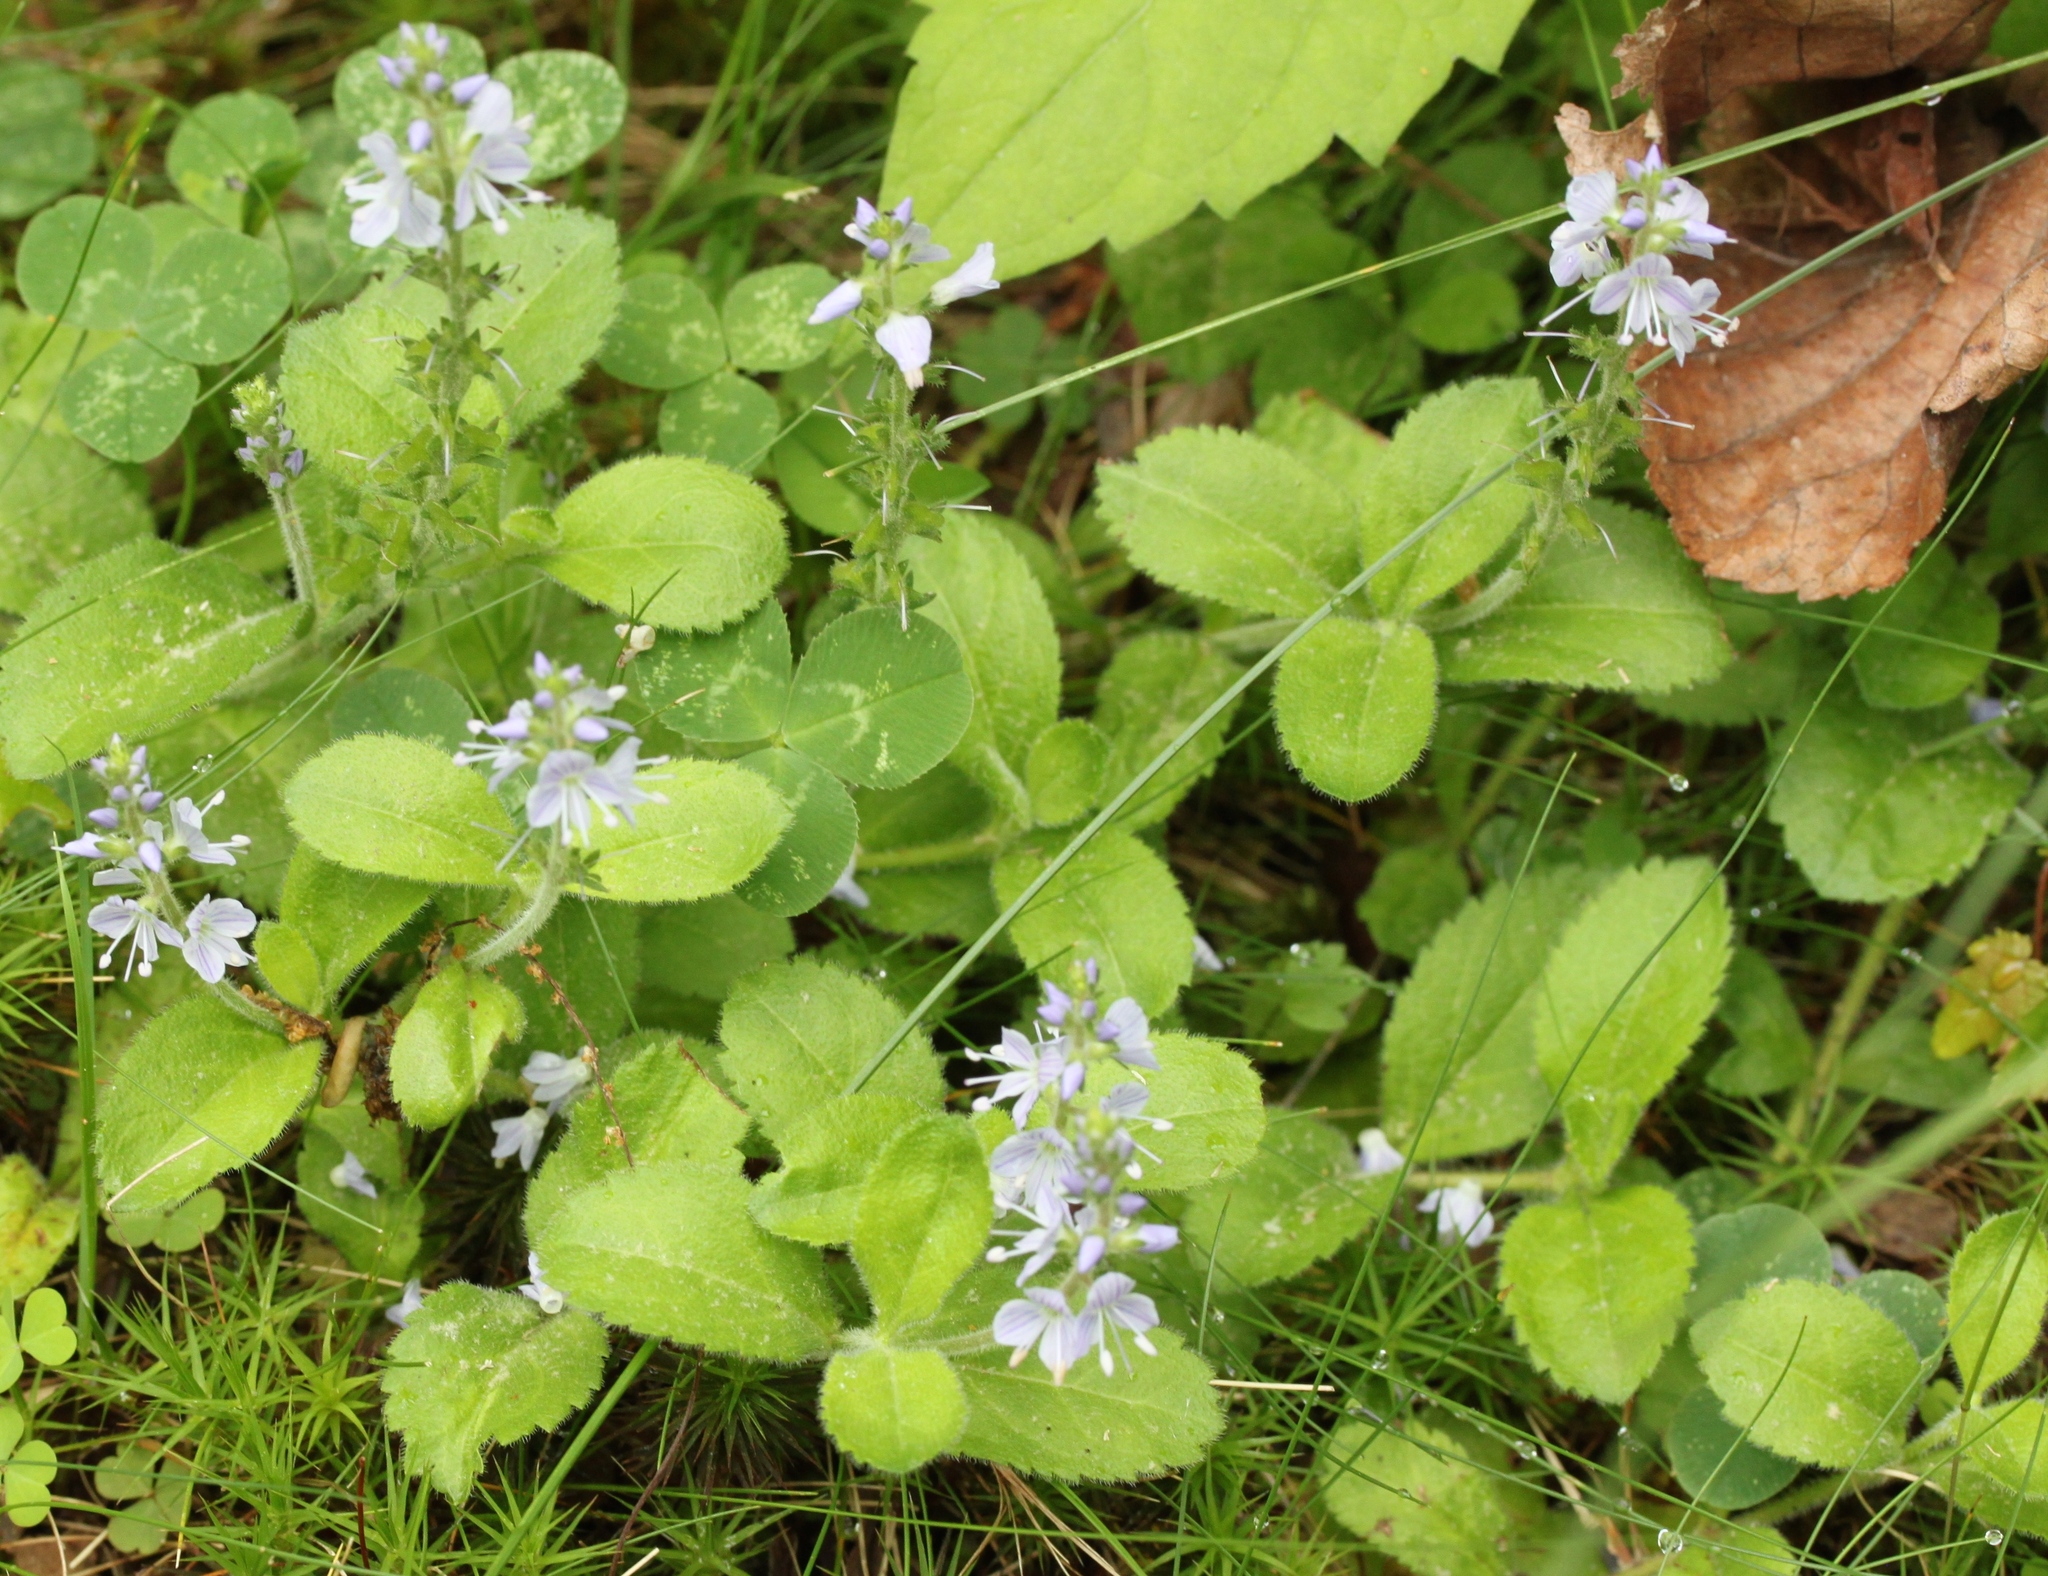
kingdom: Plantae
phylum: Tracheophyta
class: Magnoliopsida
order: Lamiales
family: Plantaginaceae
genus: Veronica
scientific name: Veronica officinalis
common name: Common speedwell
